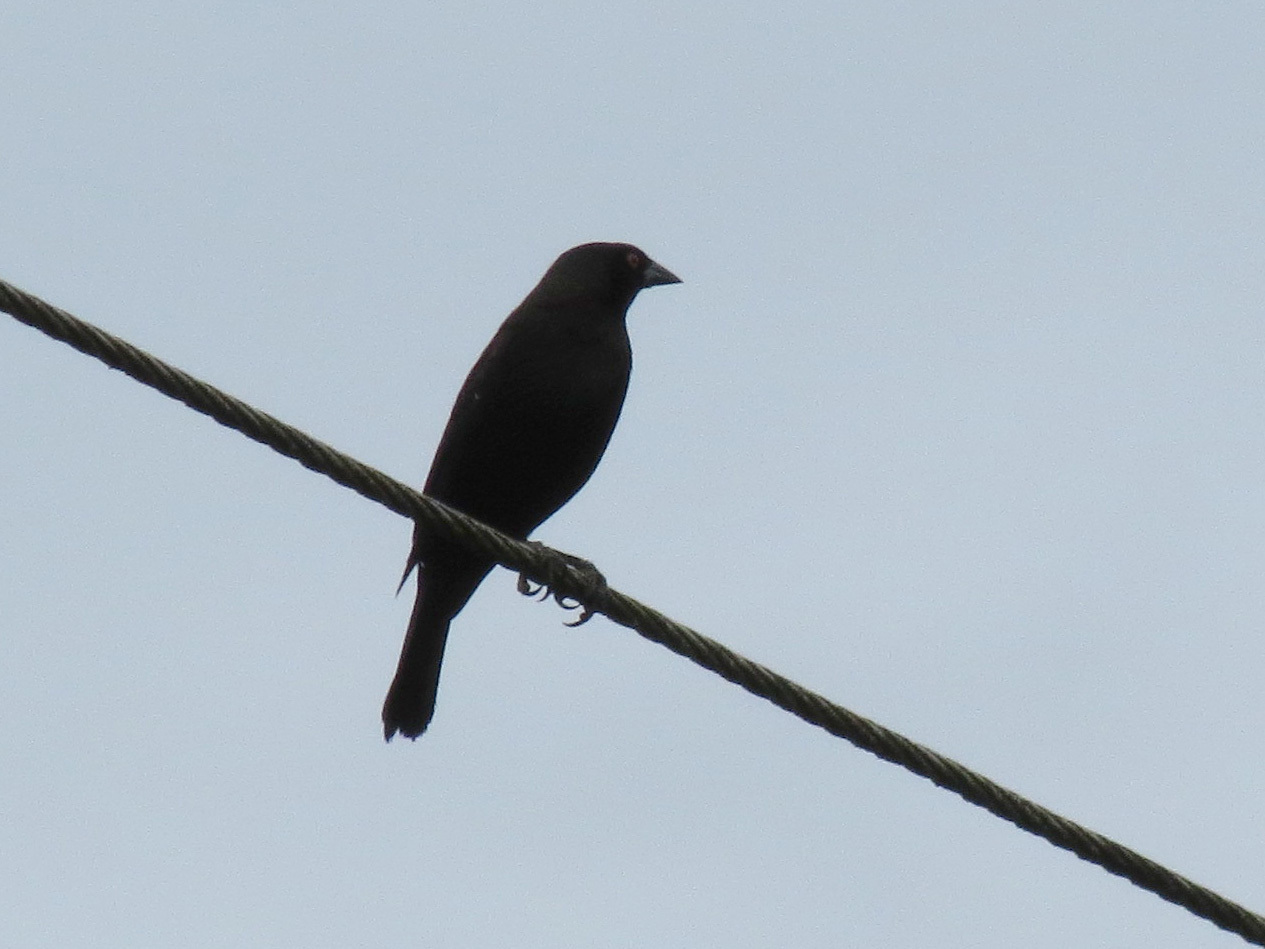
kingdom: Animalia
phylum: Chordata
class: Aves
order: Passeriformes
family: Icteridae
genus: Molothrus
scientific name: Molothrus aeneus
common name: Bronzed cowbird
